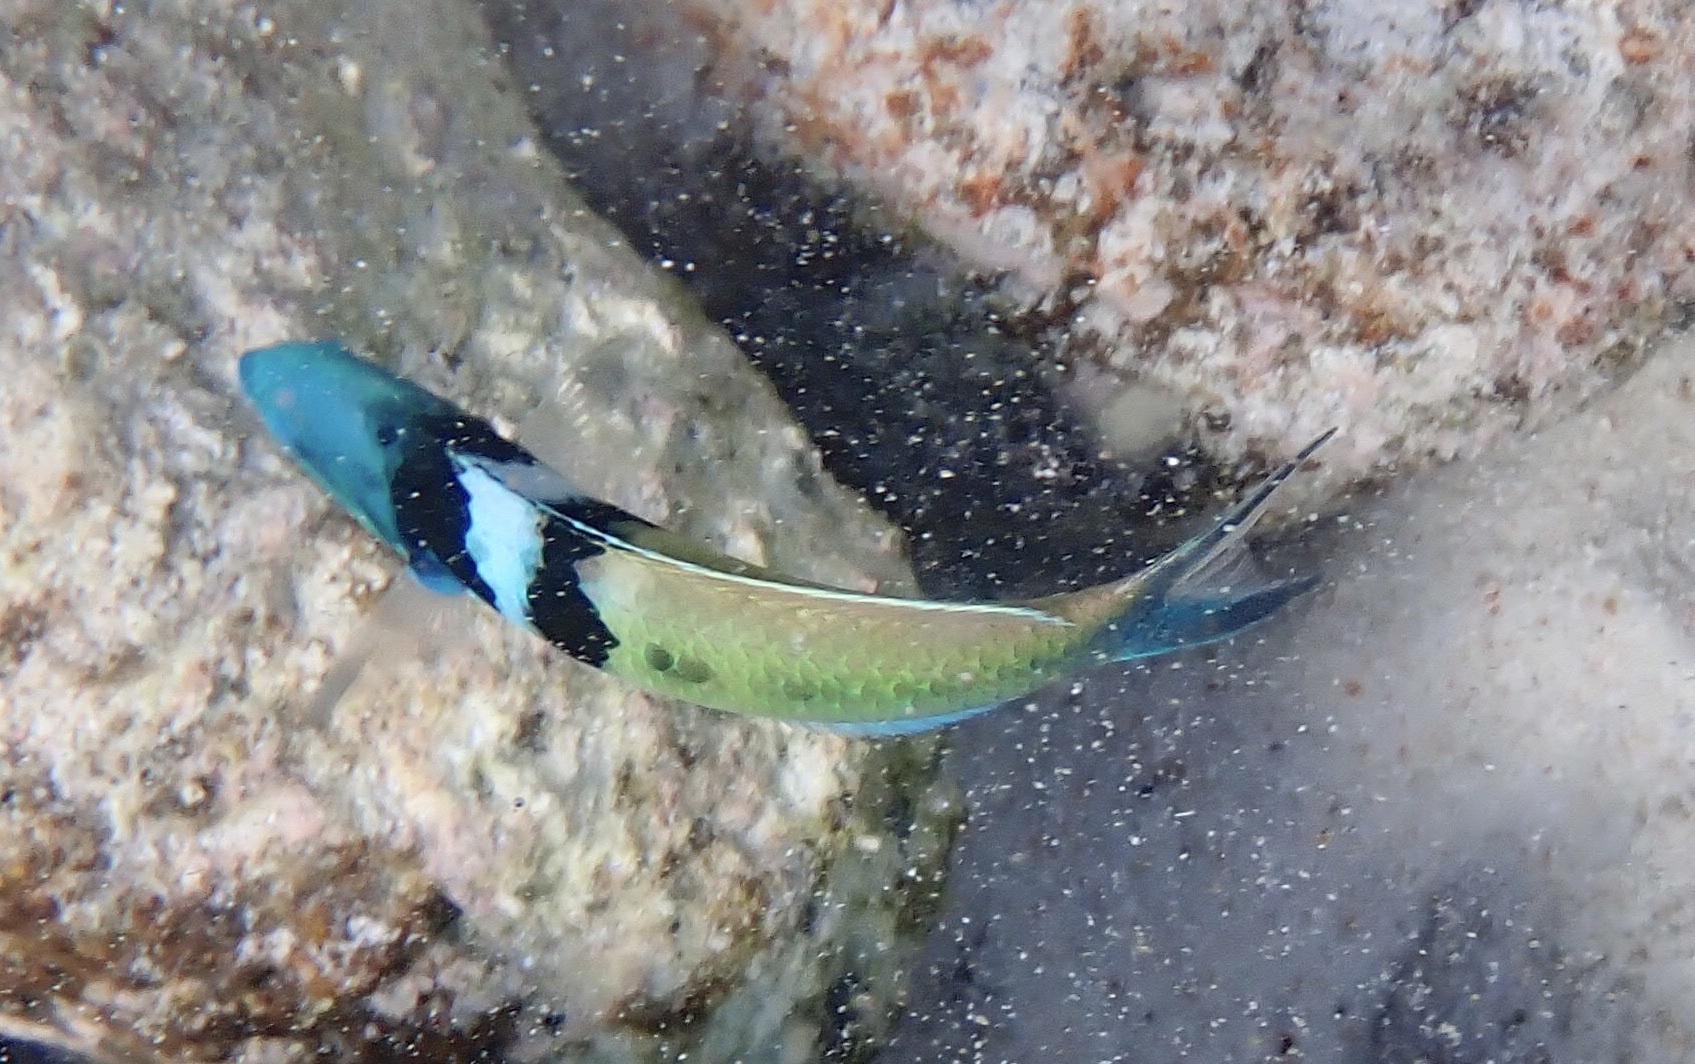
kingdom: Animalia
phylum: Chordata
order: Perciformes
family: Labridae
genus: Thalassoma
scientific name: Thalassoma bifasciatum
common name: Bluehead wrasse
